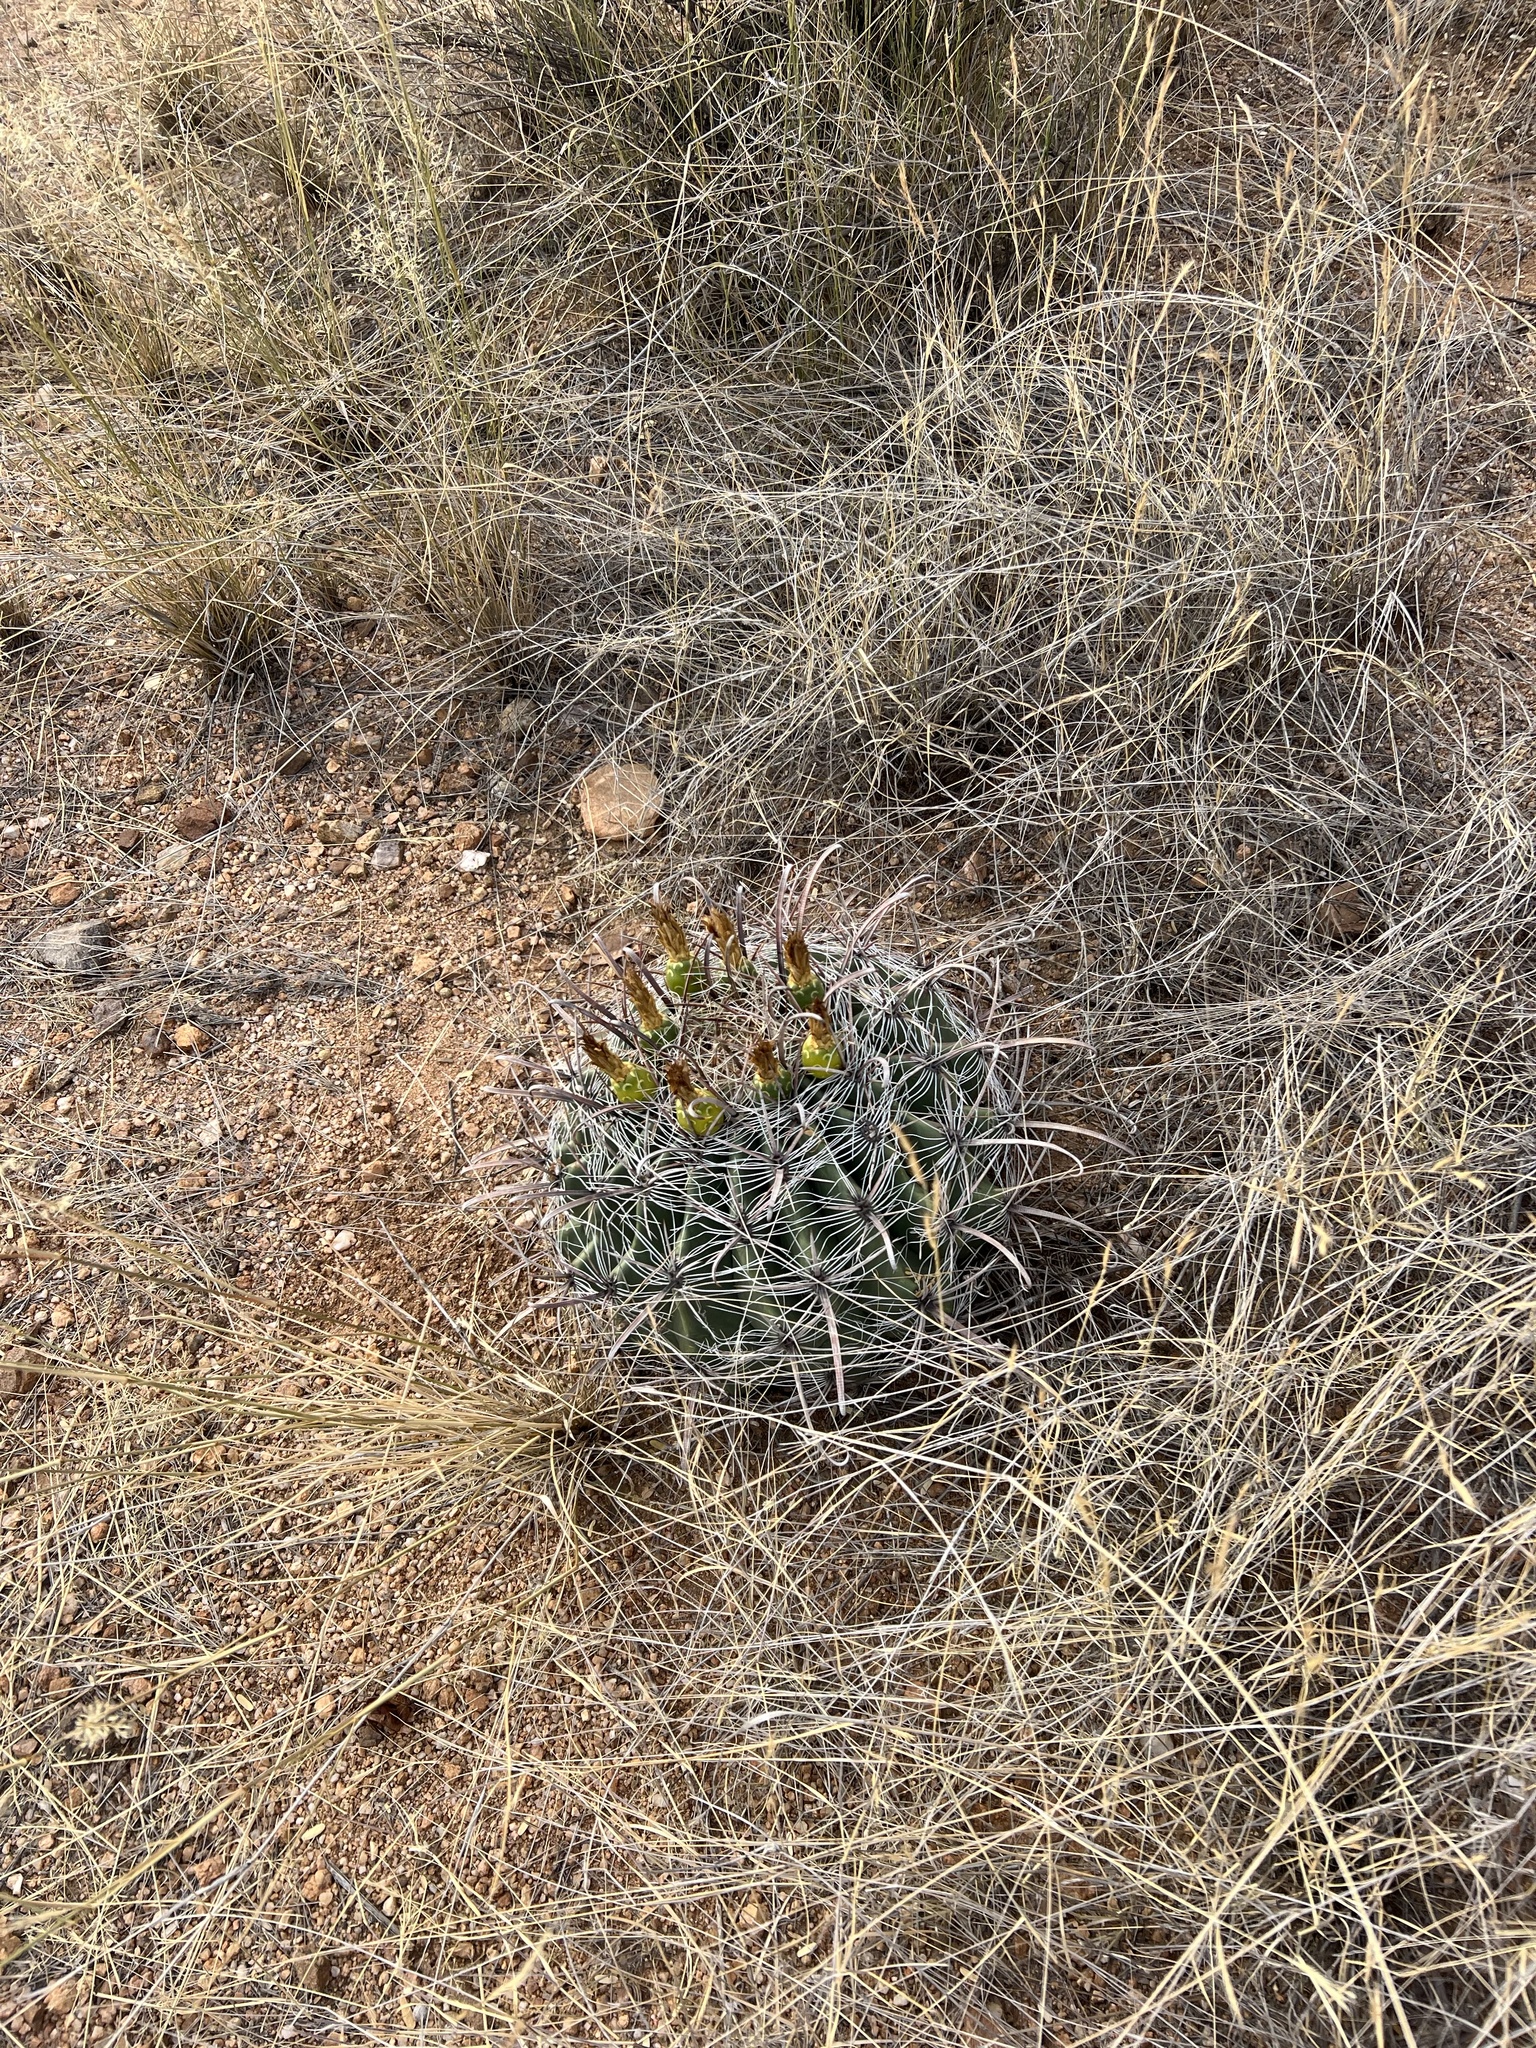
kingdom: Plantae
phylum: Tracheophyta
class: Magnoliopsida
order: Caryophyllales
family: Cactaceae
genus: Ferocactus
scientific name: Ferocactus wislizeni
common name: Candy barrel cactus
